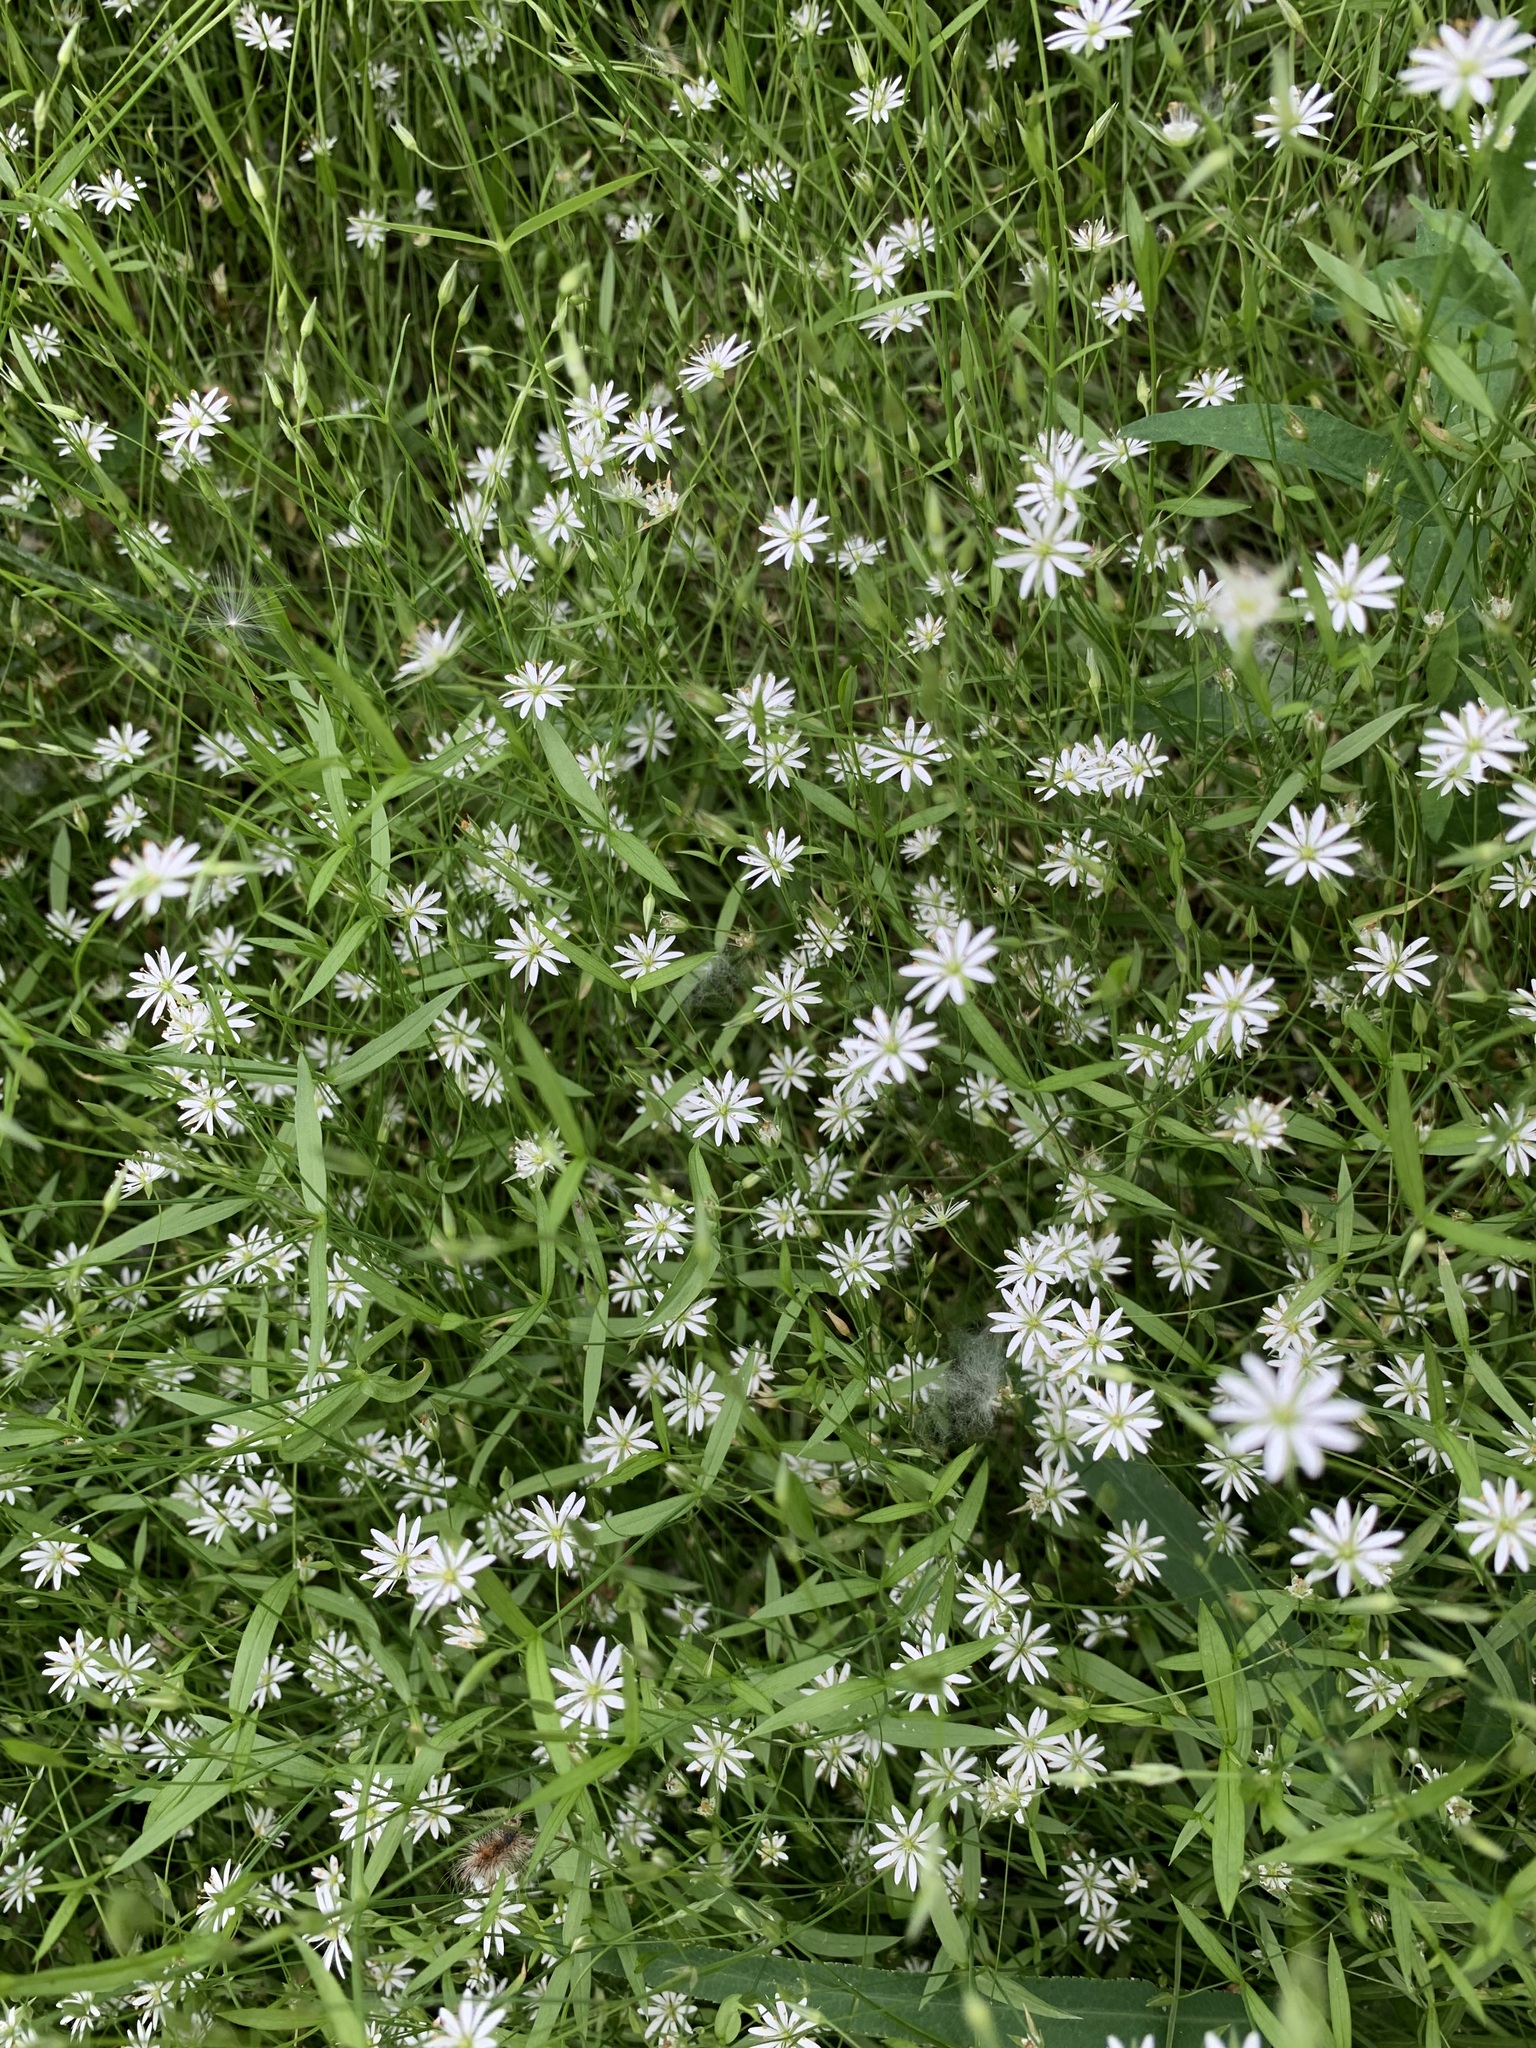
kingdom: Plantae
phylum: Tracheophyta
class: Magnoliopsida
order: Caryophyllales
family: Caryophyllaceae
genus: Stellaria
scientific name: Stellaria graminea
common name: Grass-like starwort
